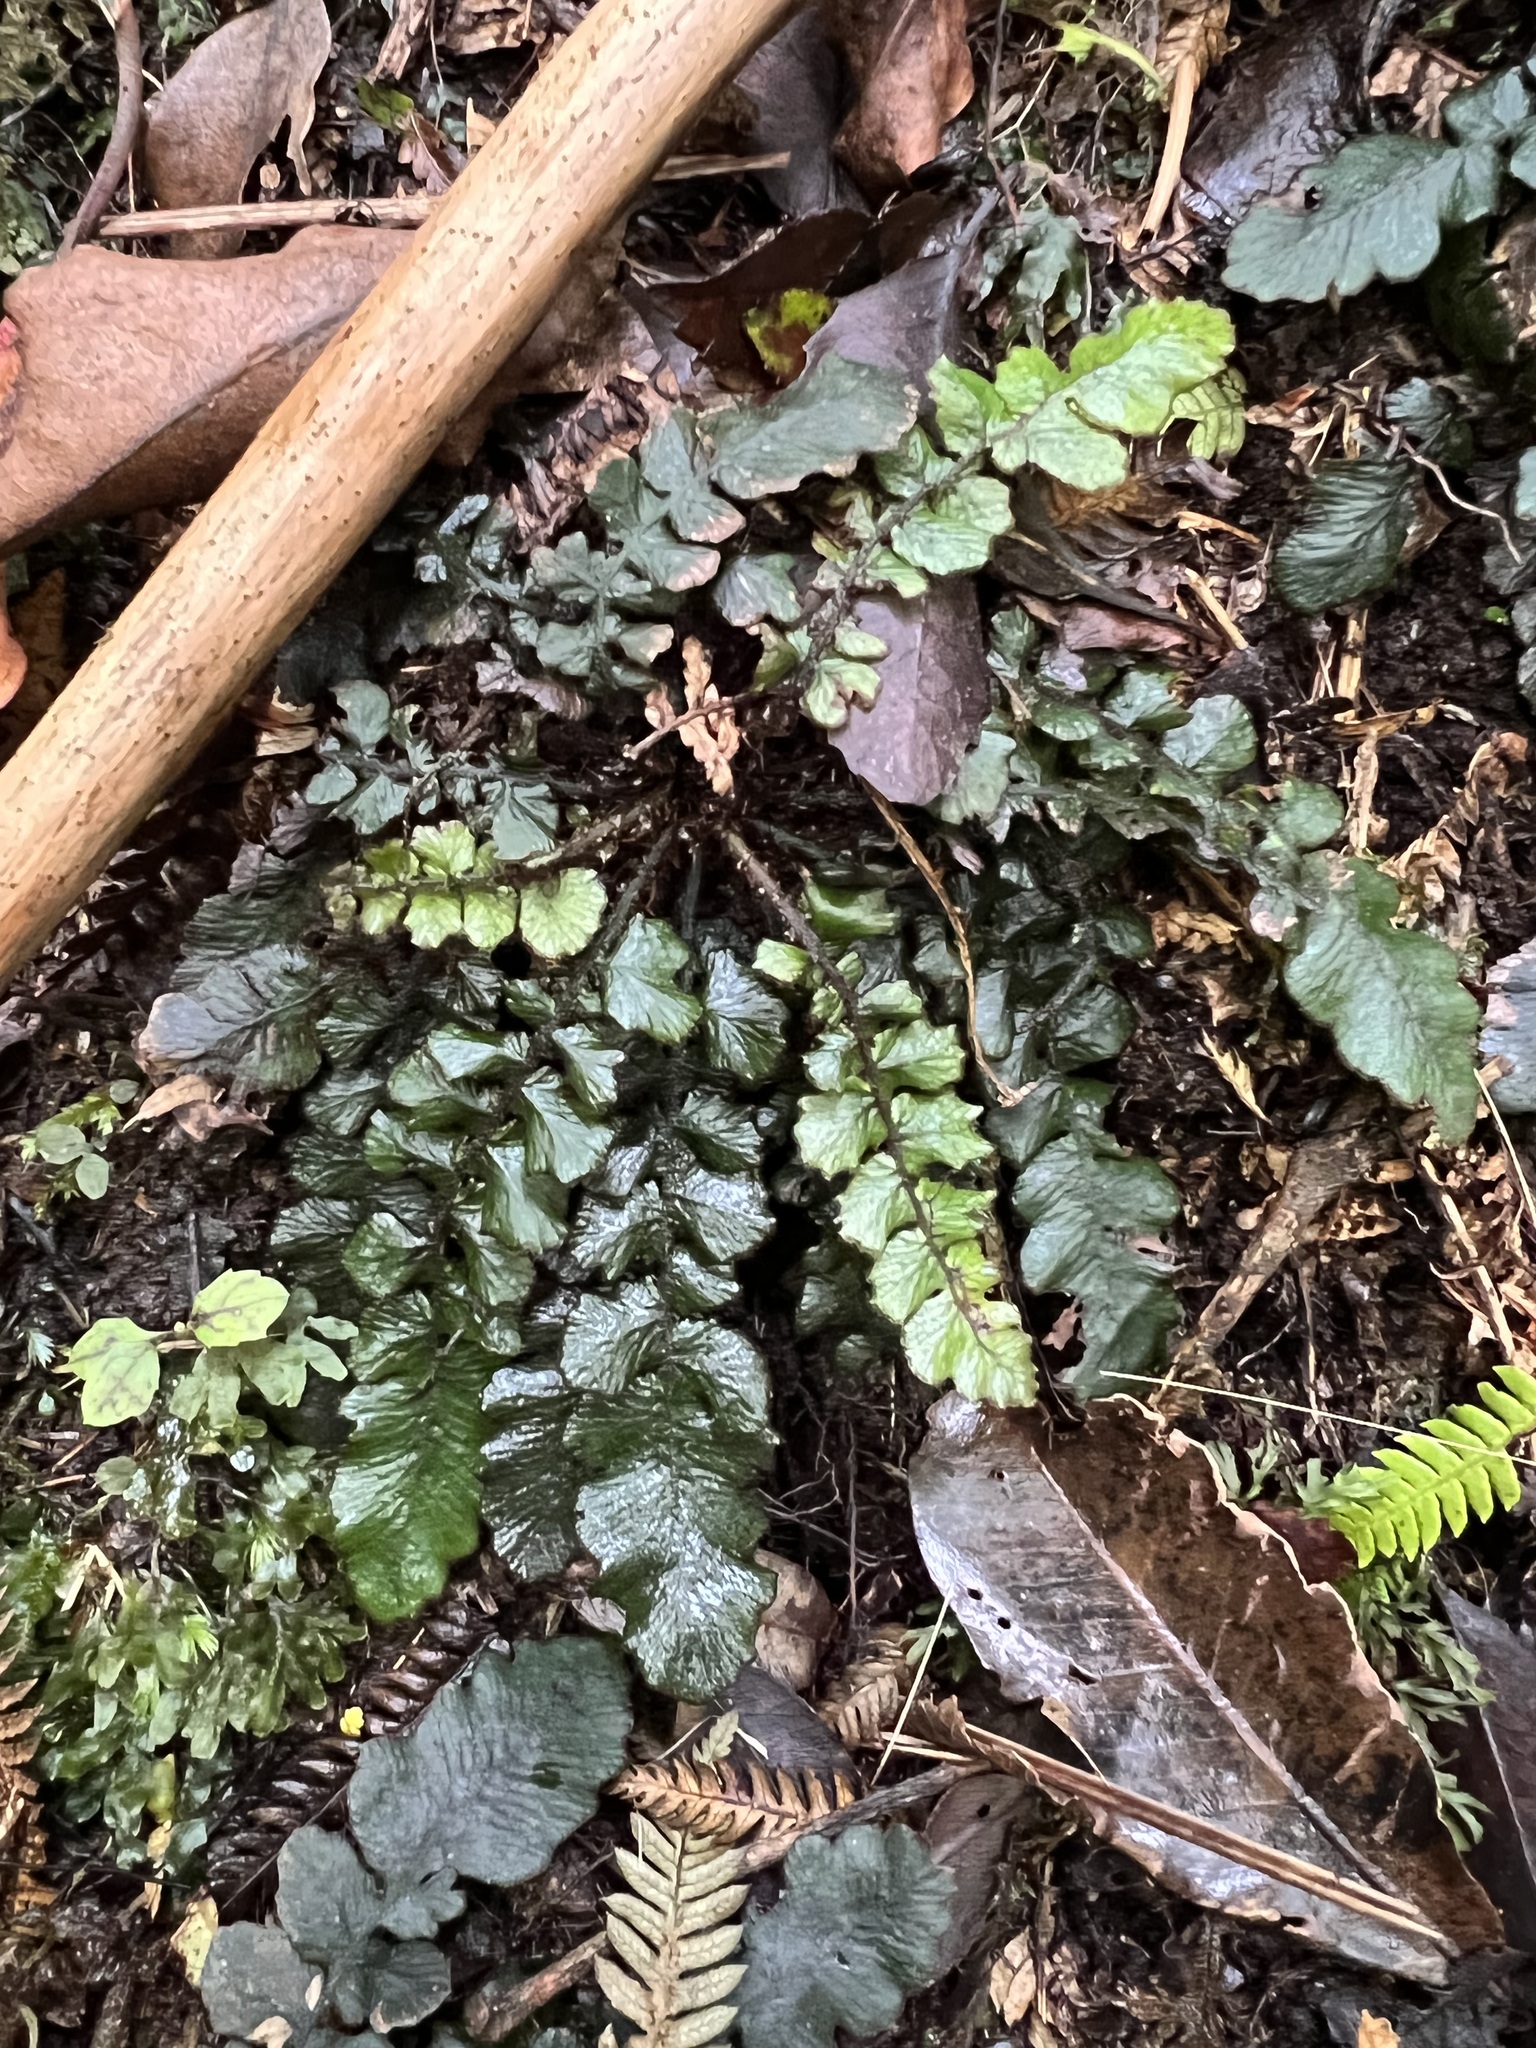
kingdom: Plantae
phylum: Tracheophyta
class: Polypodiopsida
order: Polypodiales
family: Blechnaceae
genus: Cranfillia
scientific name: Cranfillia nigra
